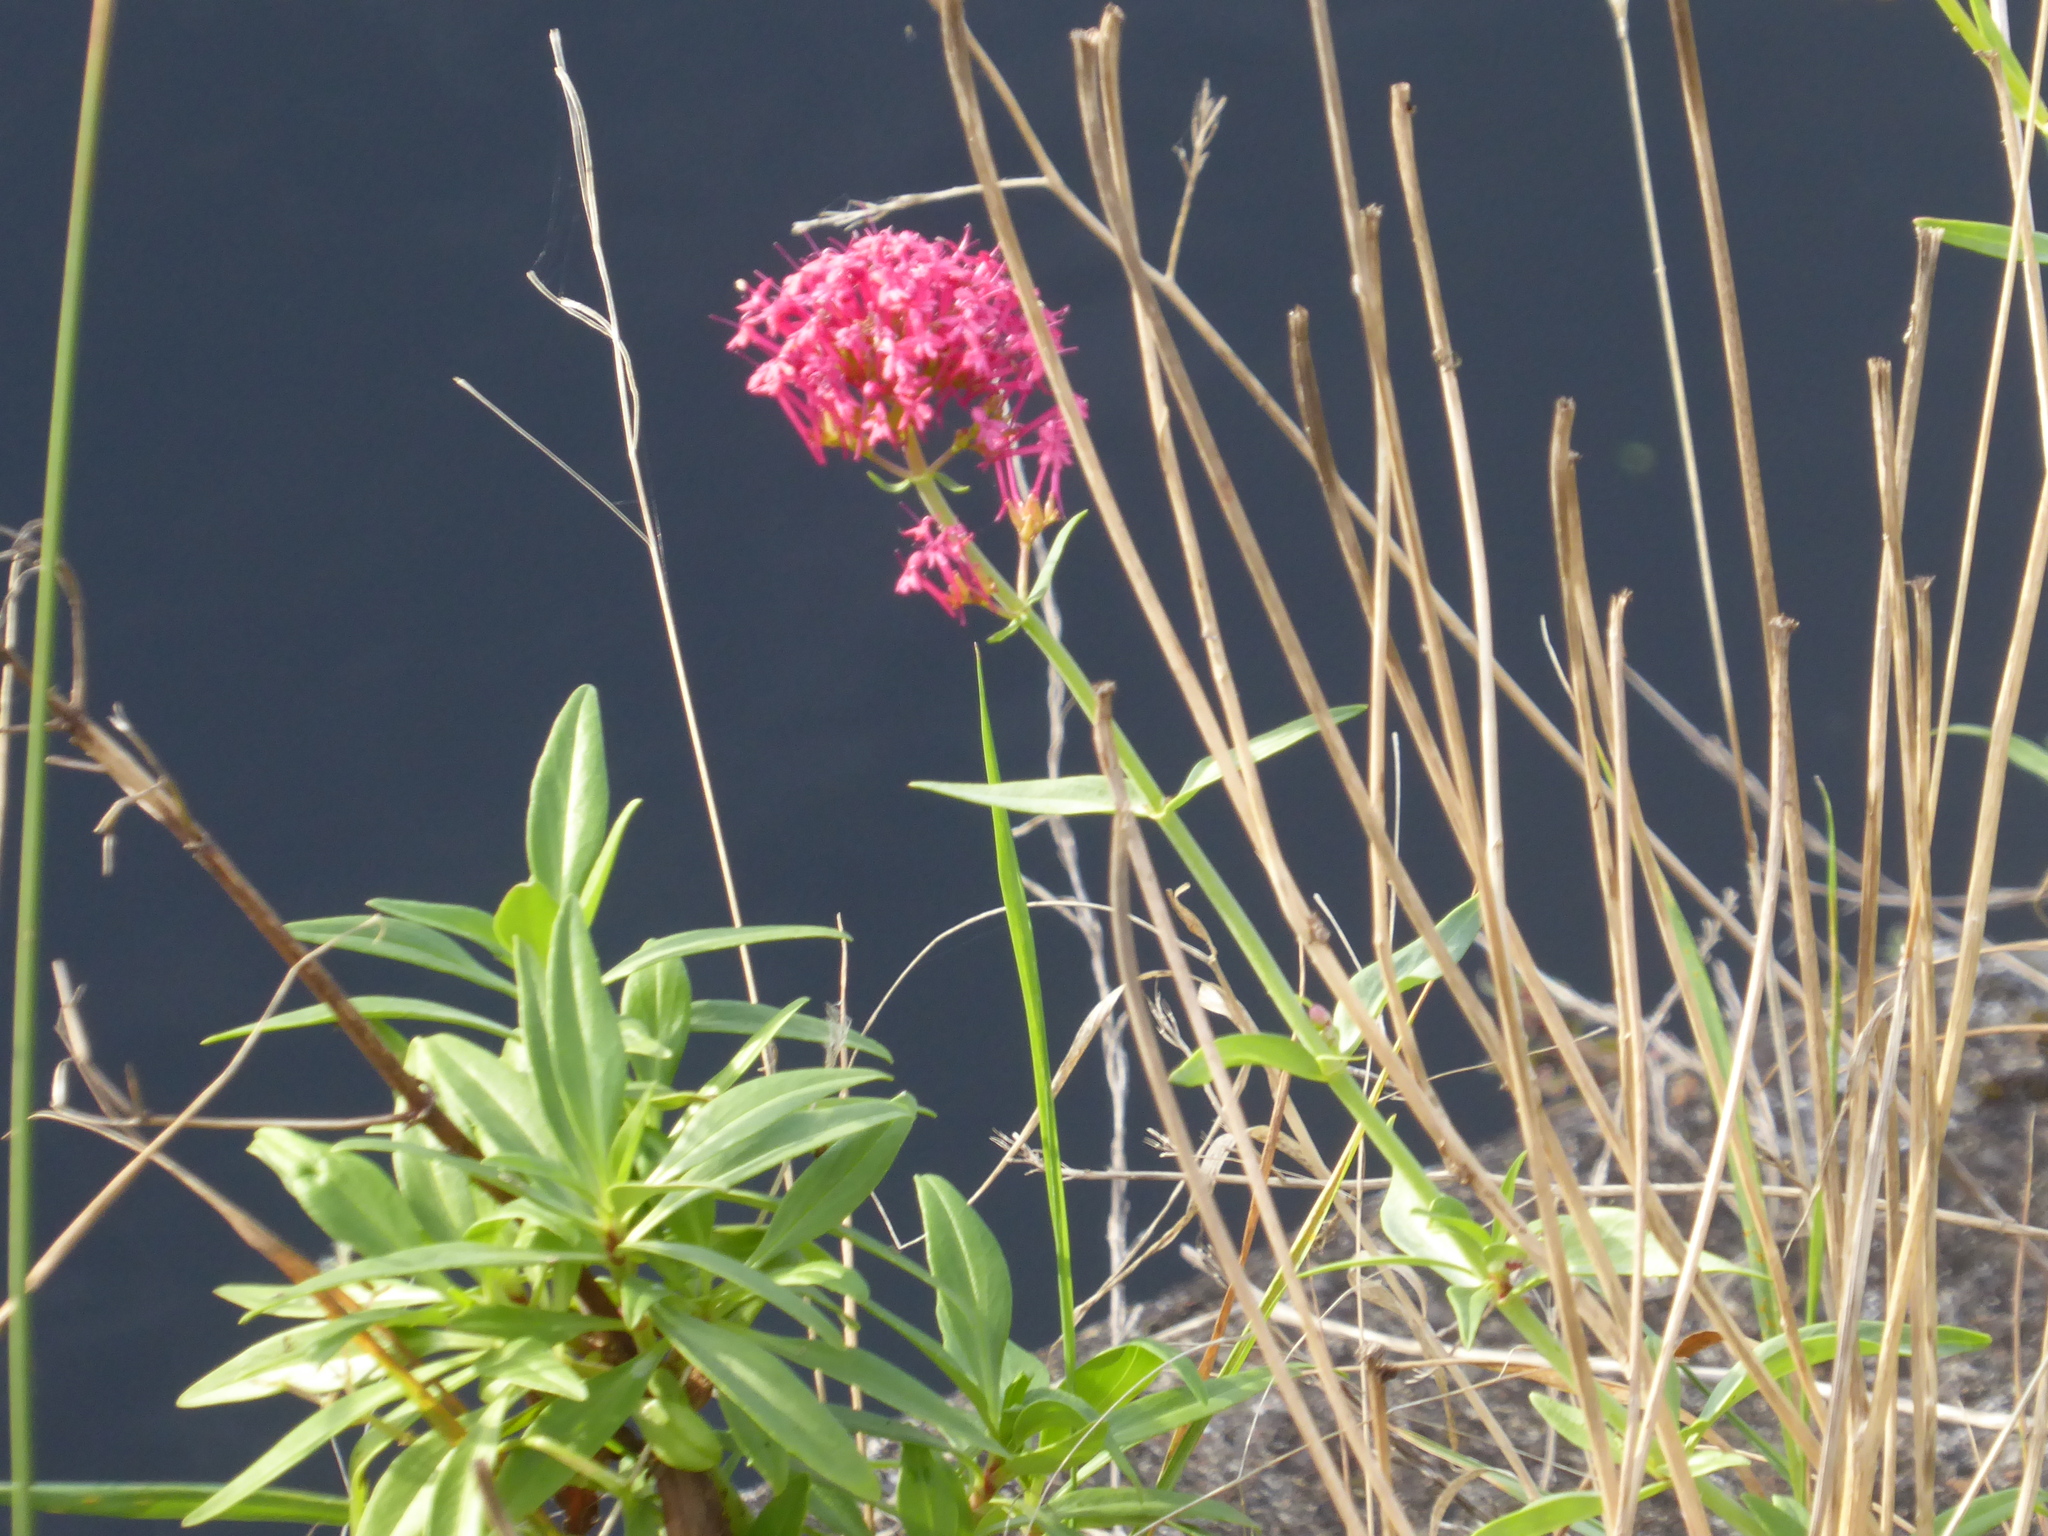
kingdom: Plantae
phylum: Tracheophyta
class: Magnoliopsida
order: Dipsacales
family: Caprifoliaceae
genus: Centranthus
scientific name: Centranthus ruber
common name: Red valerian
